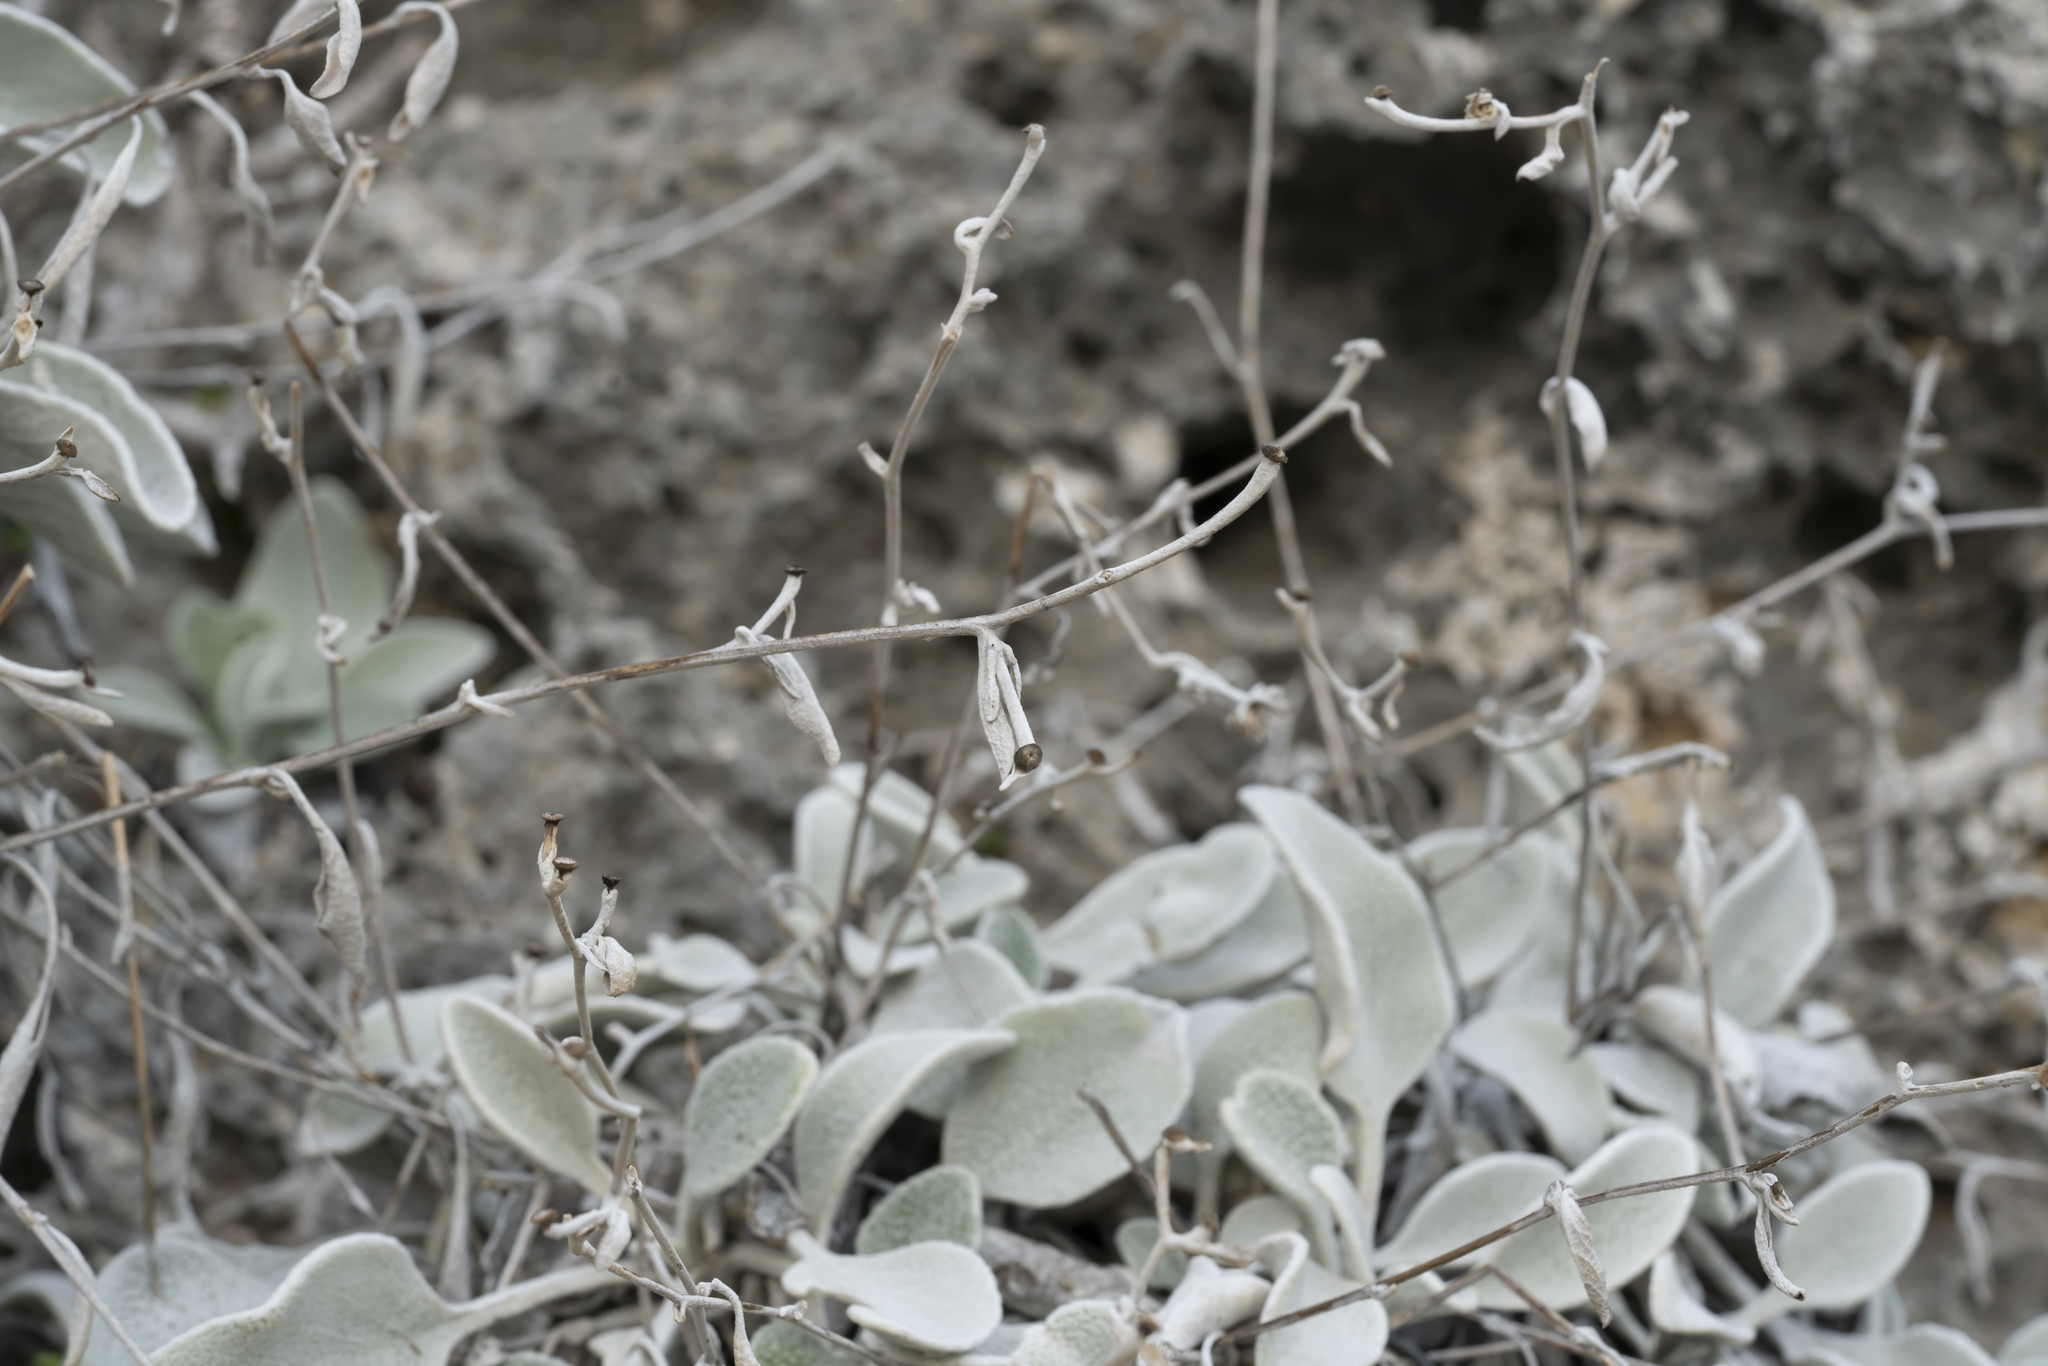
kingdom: Plantae
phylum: Tracheophyta
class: Magnoliopsida
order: Asterales
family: Asteraceae
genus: Pentanema
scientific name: Pentanema verbascifolium
